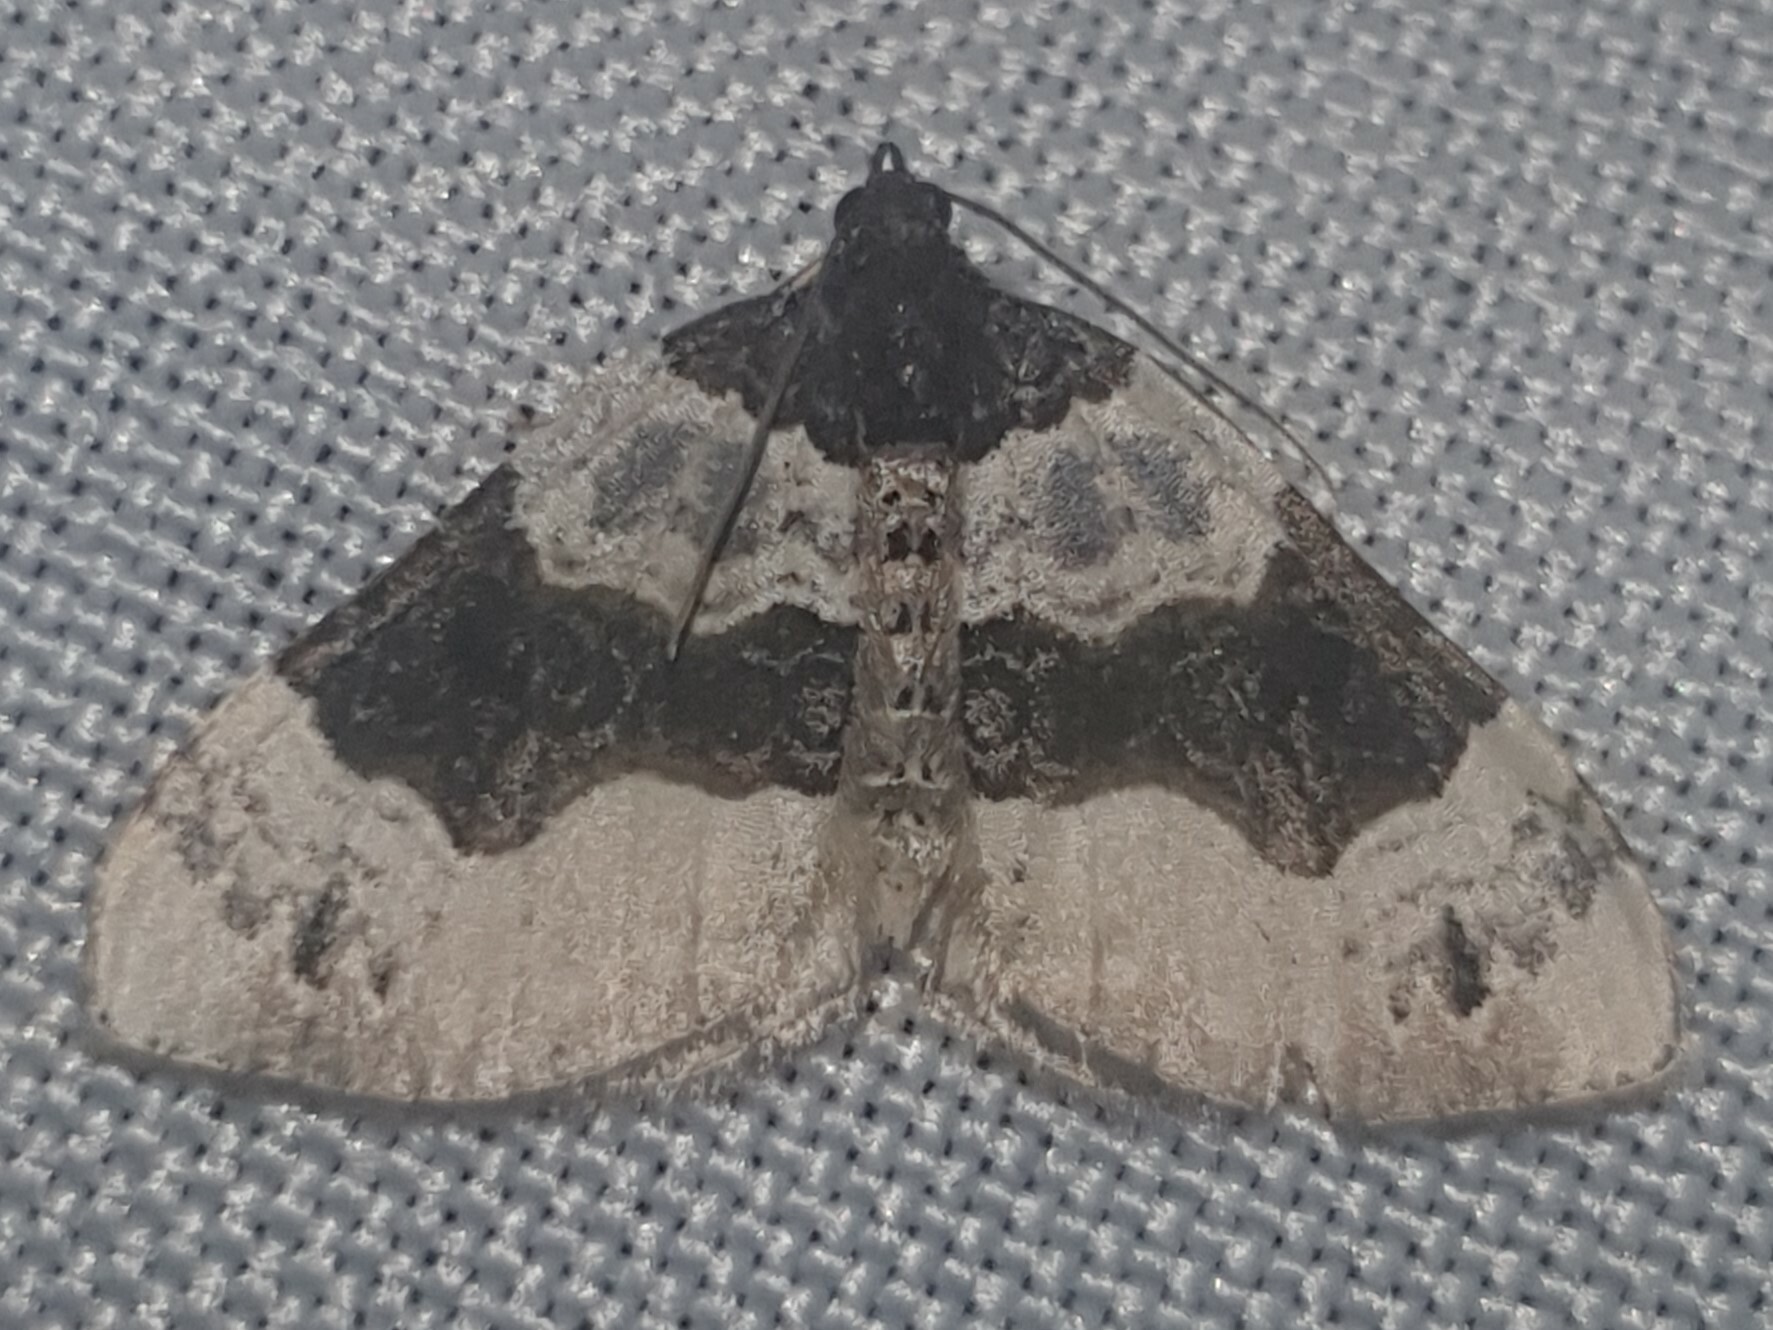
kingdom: Animalia
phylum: Arthropoda
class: Insecta
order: Lepidoptera
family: Geometridae
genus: Cosmorhoe
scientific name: Cosmorhoe ocellata
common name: Purple bar
